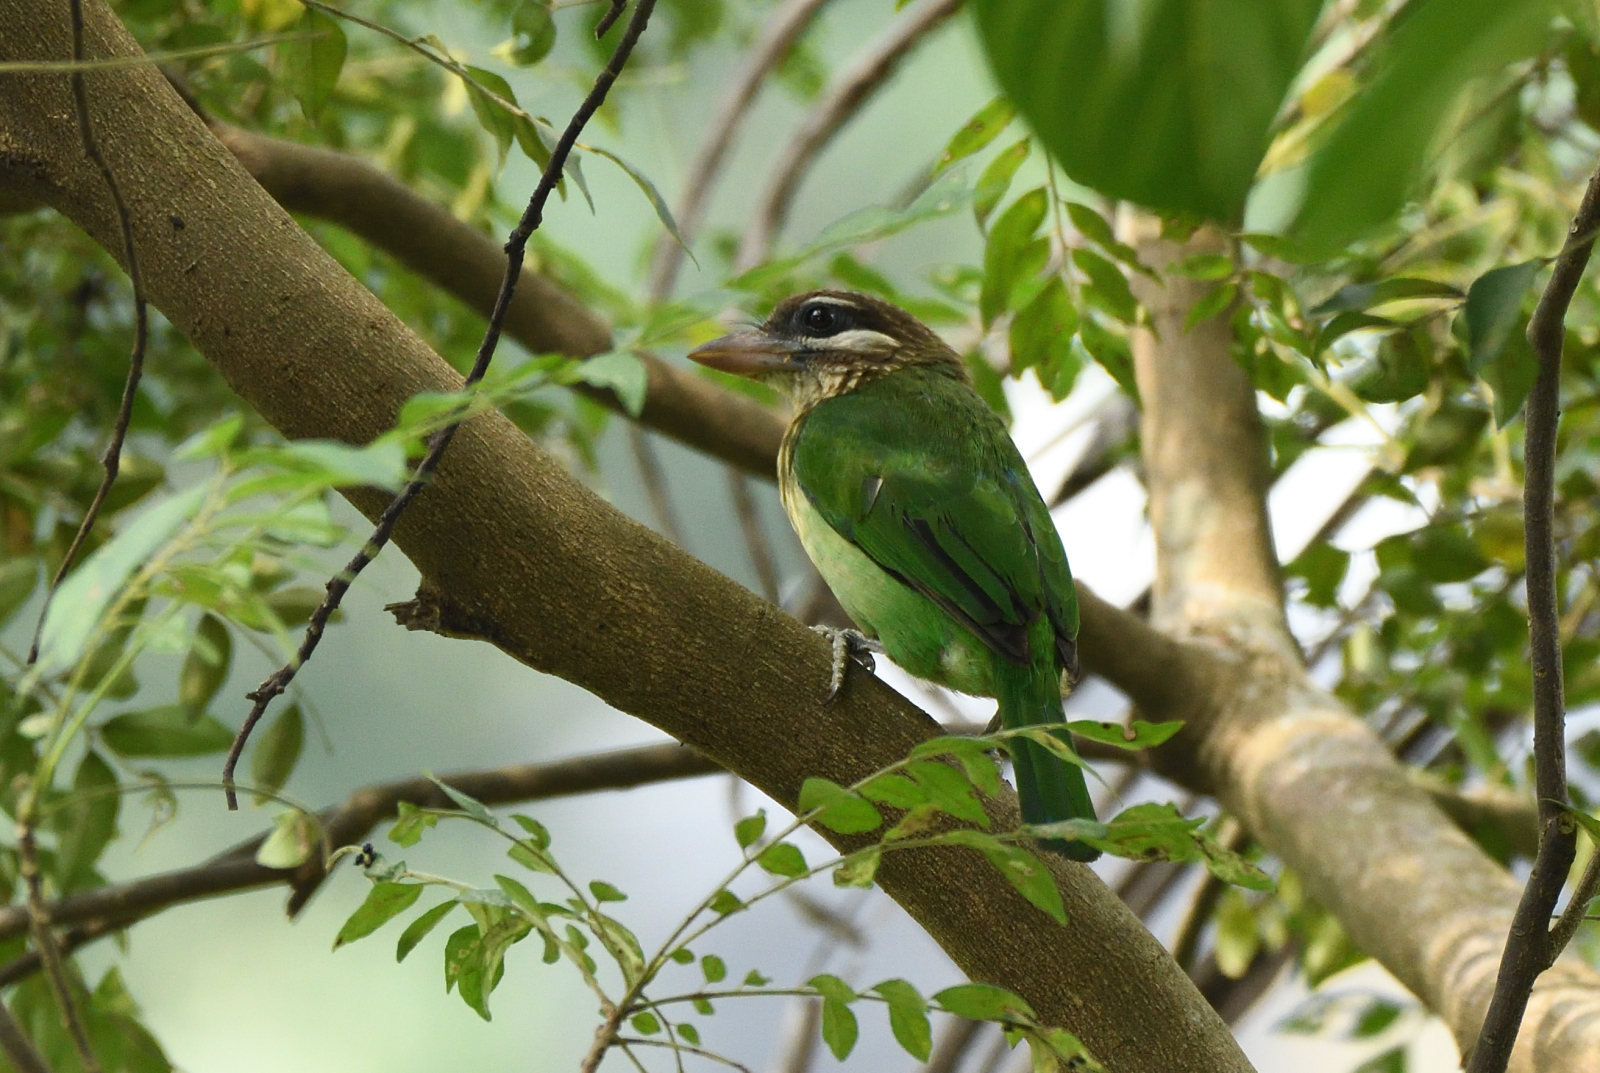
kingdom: Animalia
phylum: Chordata
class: Aves
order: Piciformes
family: Megalaimidae
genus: Psilopogon
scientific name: Psilopogon viridis
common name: White-cheeked barbet
